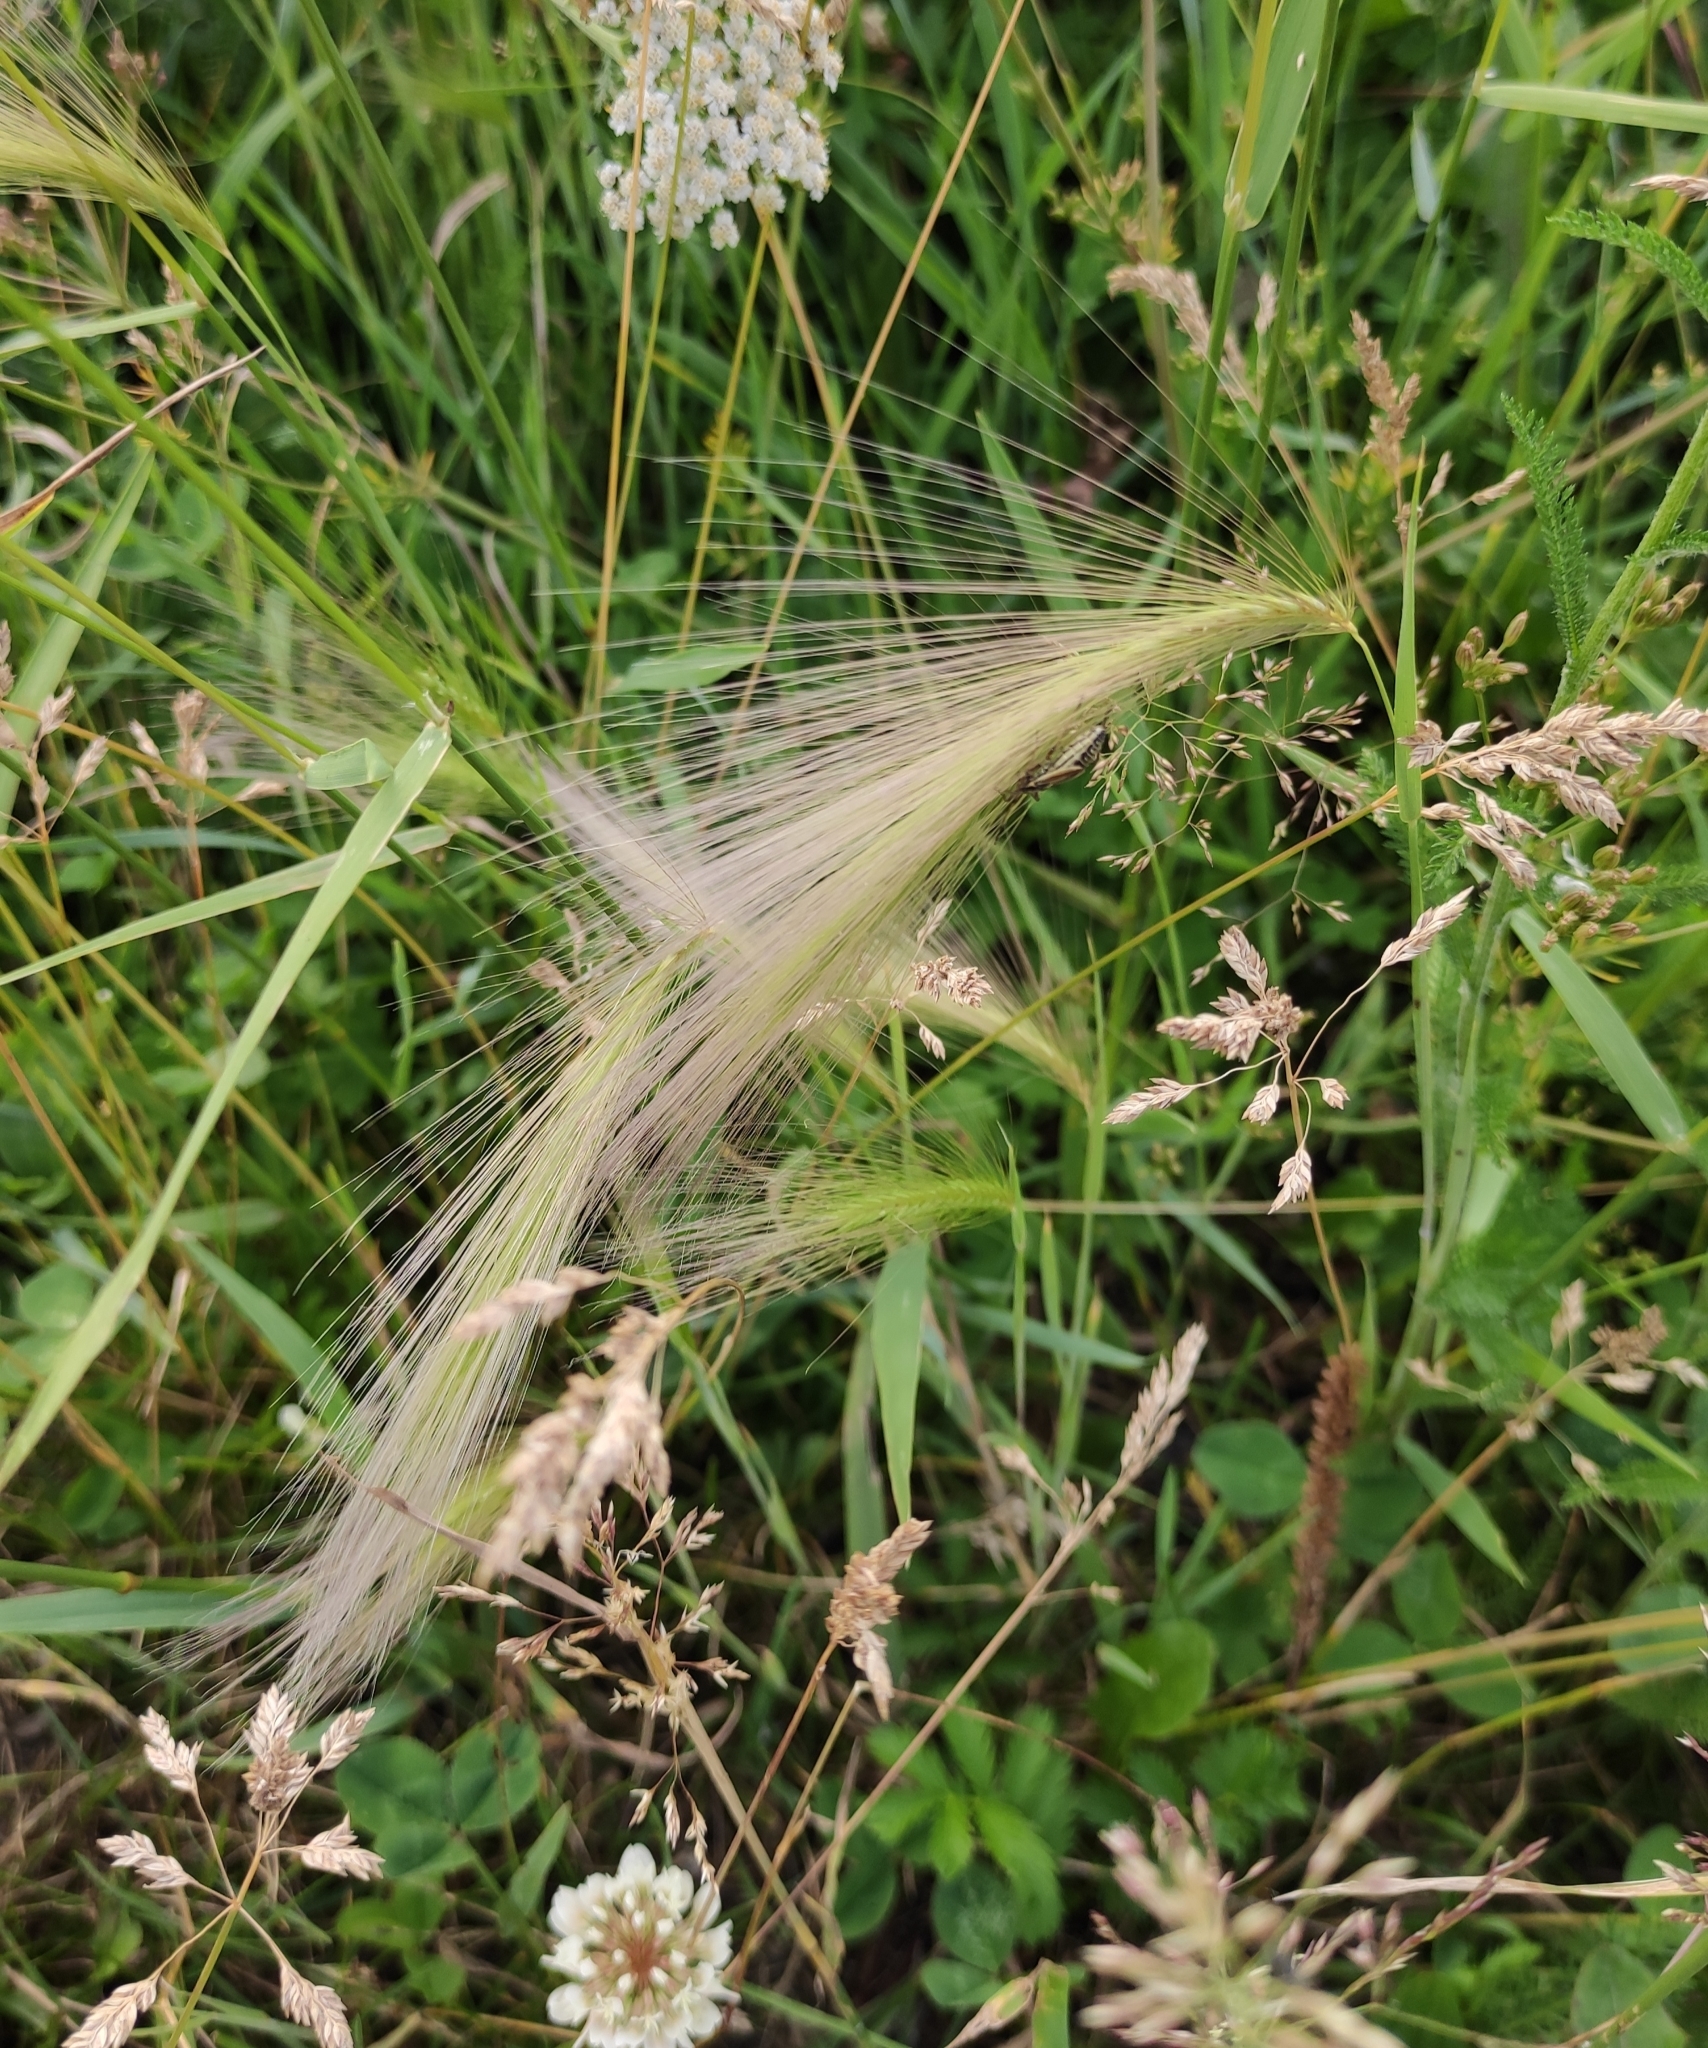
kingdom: Plantae
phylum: Tracheophyta
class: Liliopsida
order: Poales
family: Poaceae
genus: Hordeum
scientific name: Hordeum jubatum
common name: Foxtail barley
